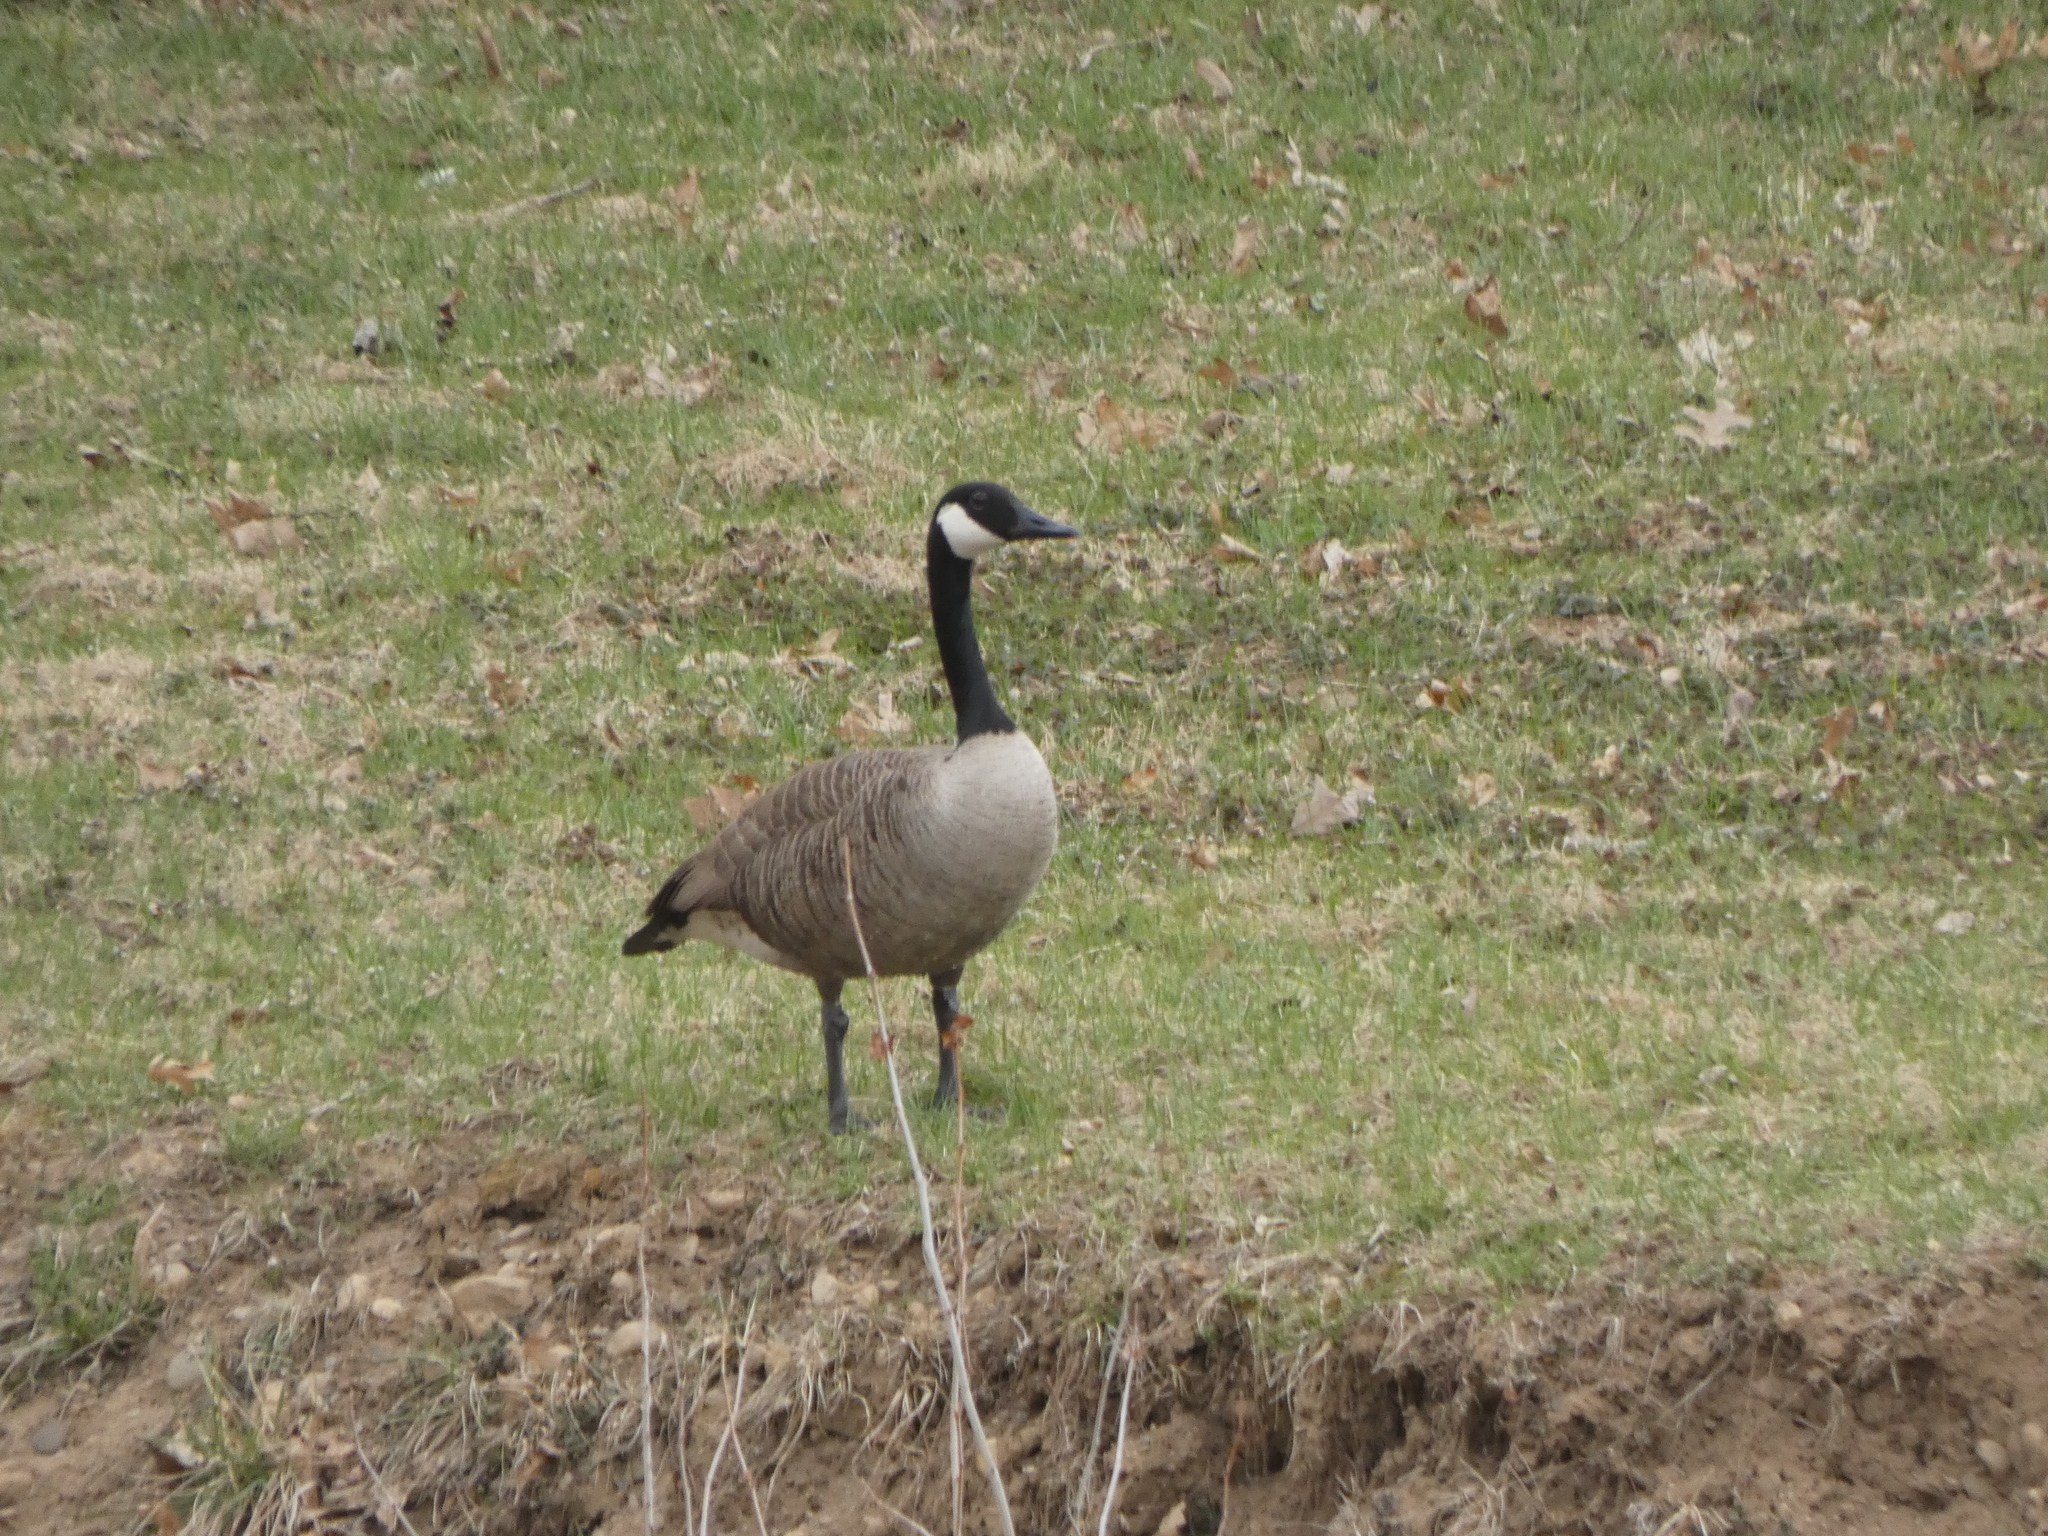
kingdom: Animalia
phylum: Chordata
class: Aves
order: Anseriformes
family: Anatidae
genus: Branta
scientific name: Branta canadensis
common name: Canada goose
